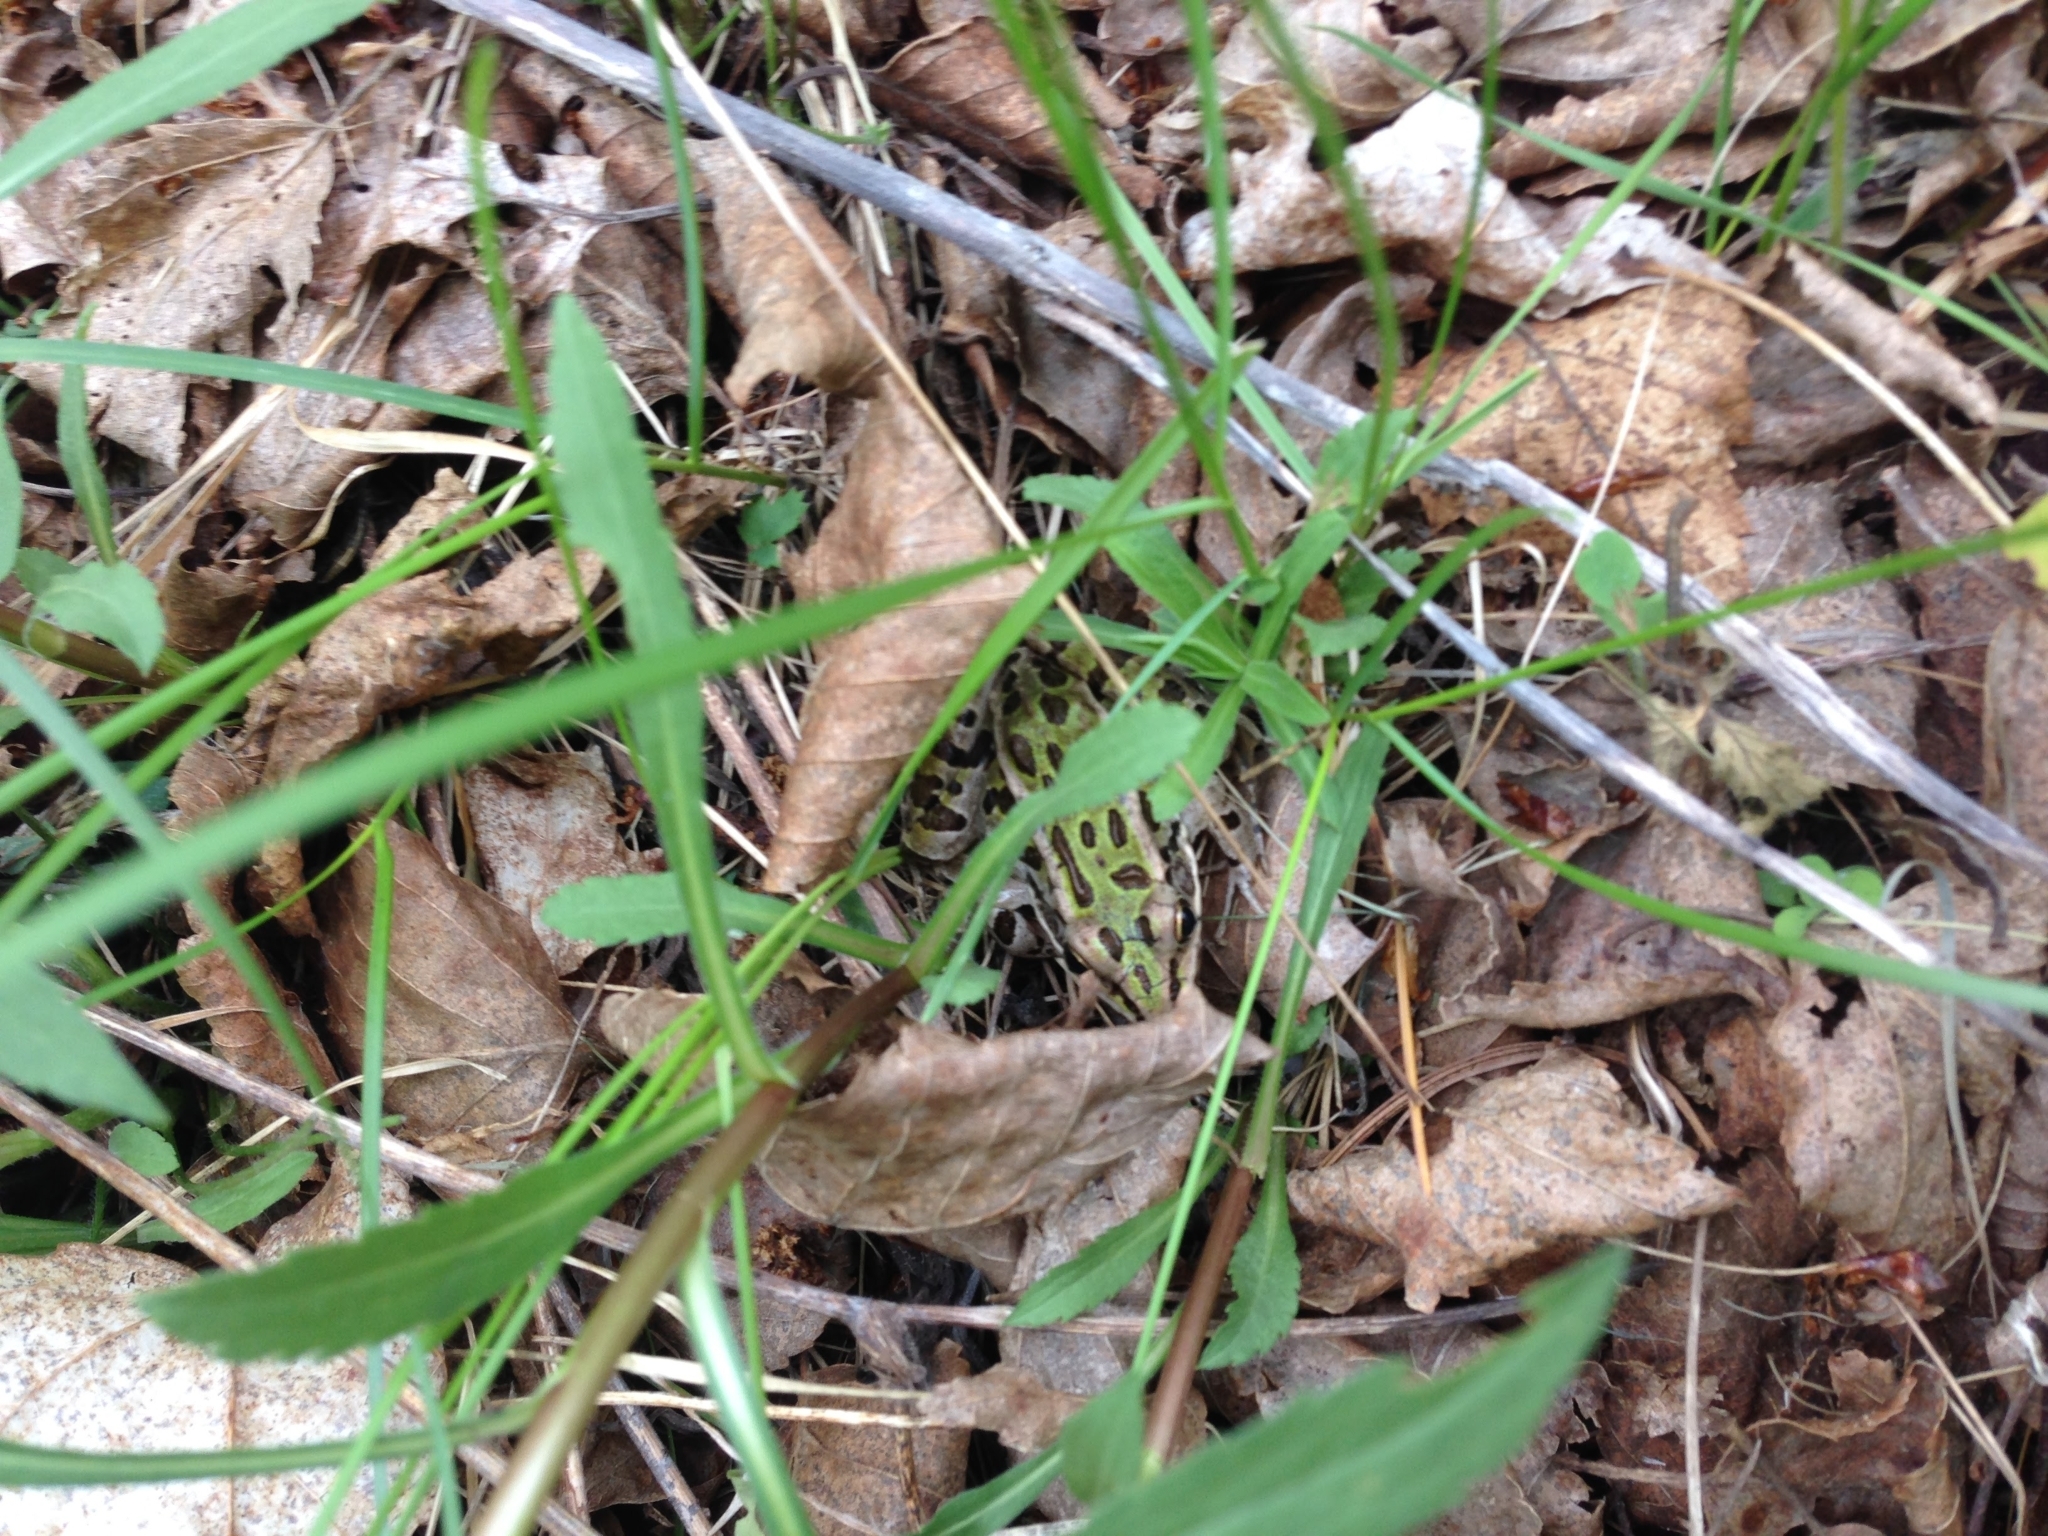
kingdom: Animalia
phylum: Chordata
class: Amphibia
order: Anura
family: Ranidae
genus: Lithobates
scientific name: Lithobates pipiens
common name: Northern leopard frog
